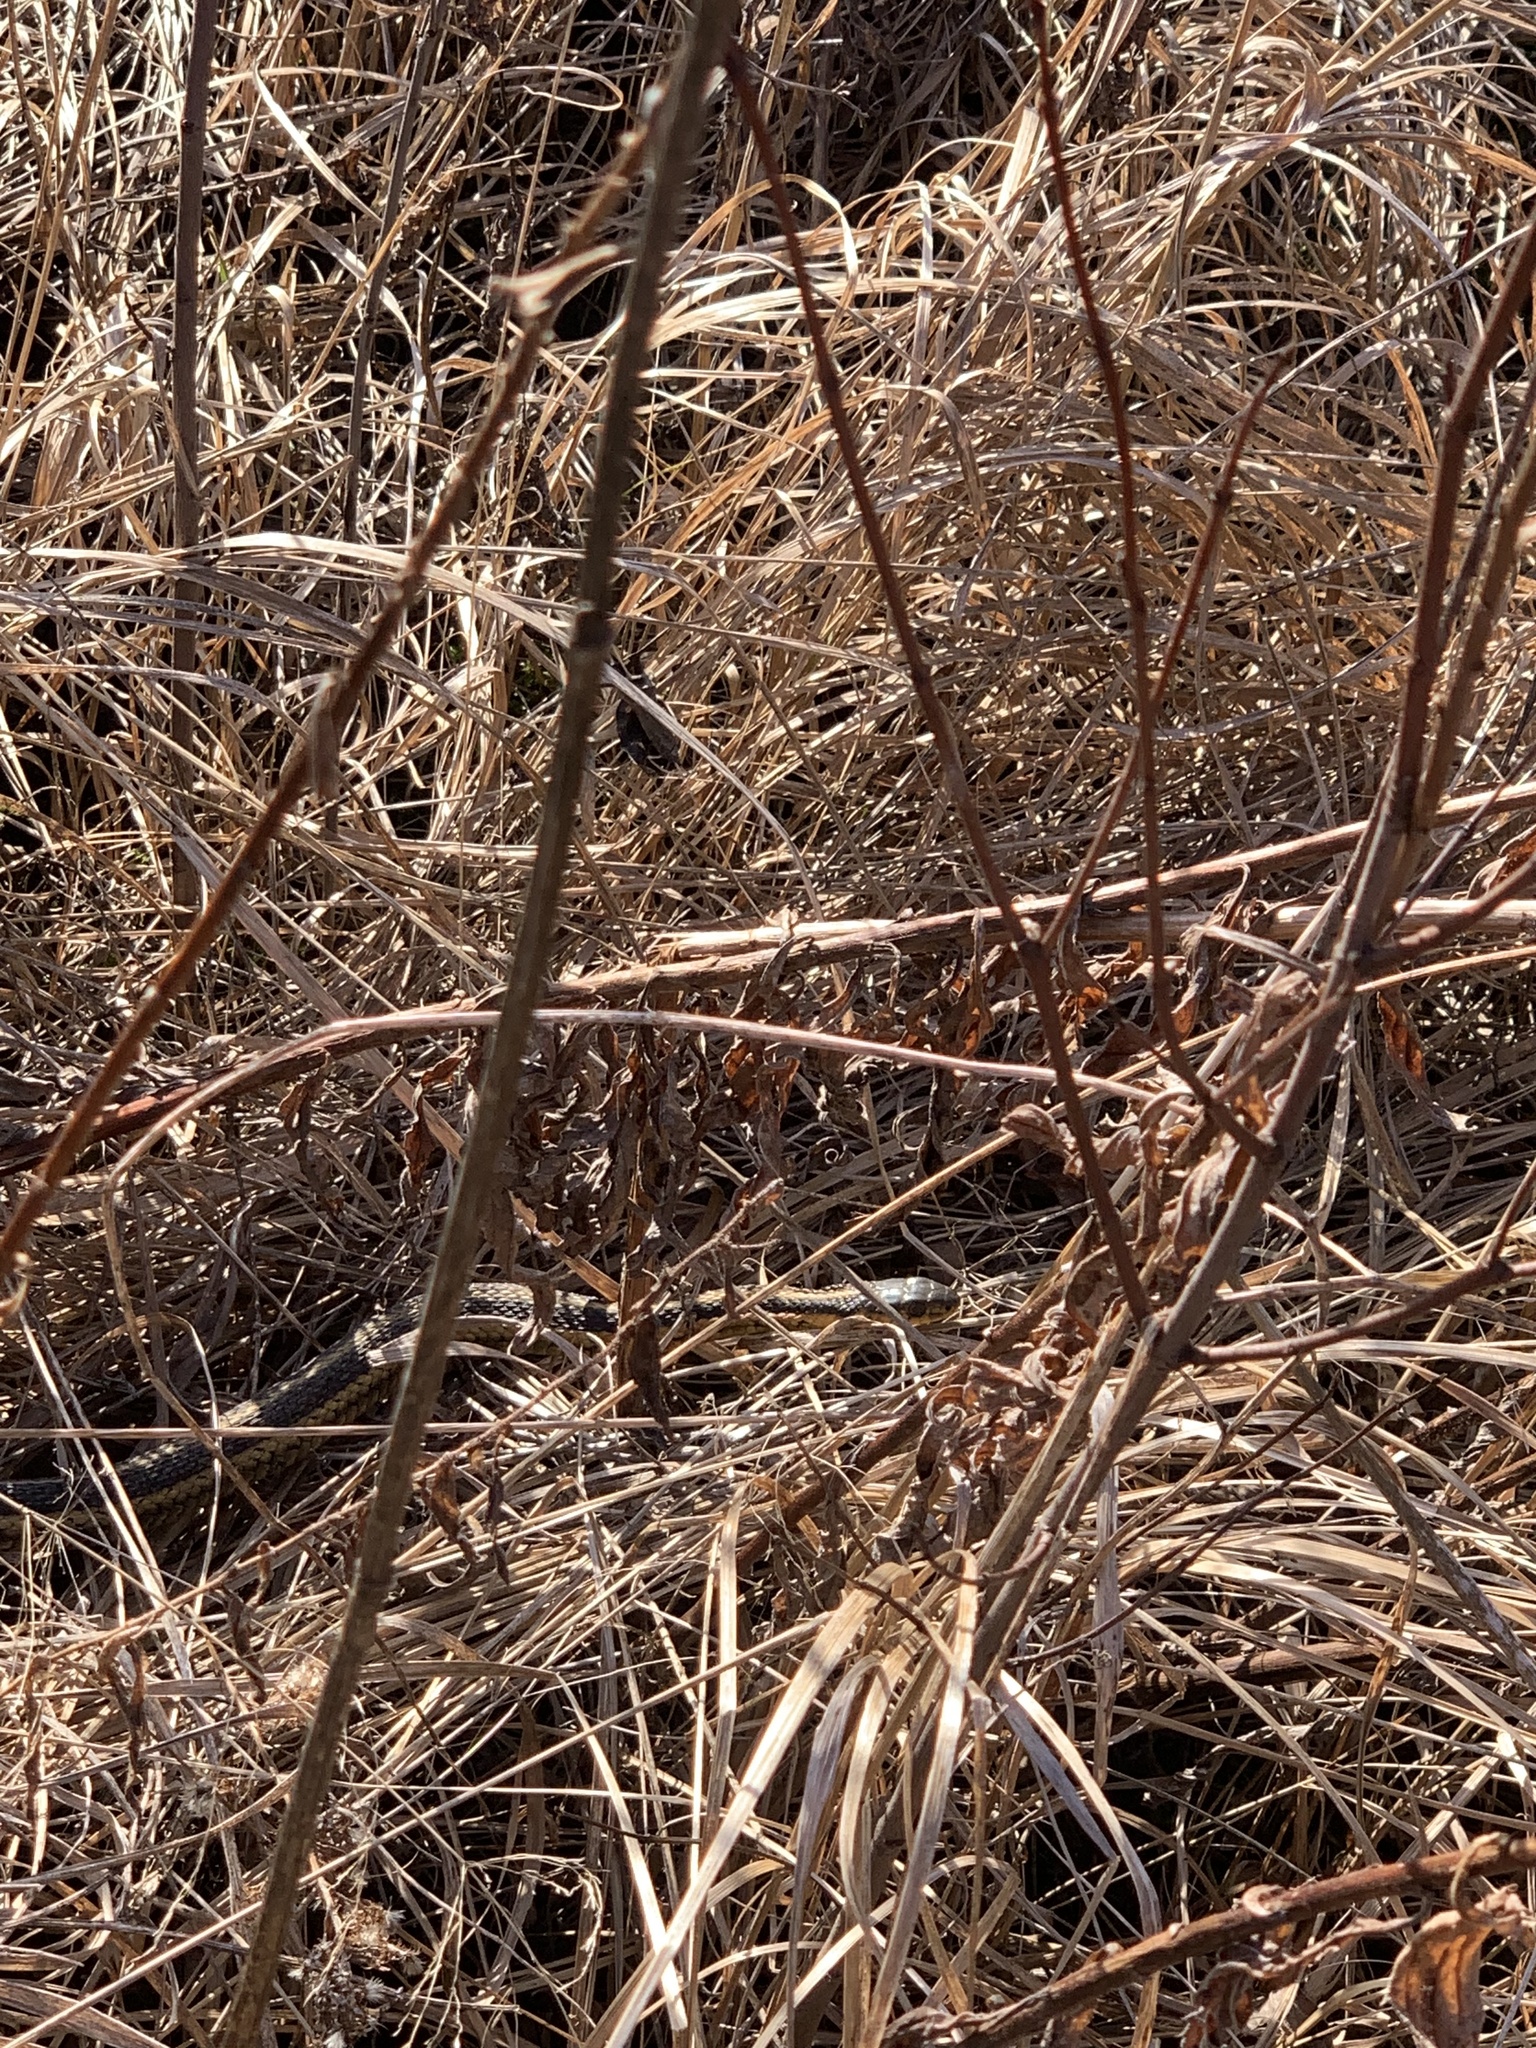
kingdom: Animalia
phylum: Chordata
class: Squamata
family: Colubridae
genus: Thamnophis
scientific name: Thamnophis sirtalis
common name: Common garter snake
